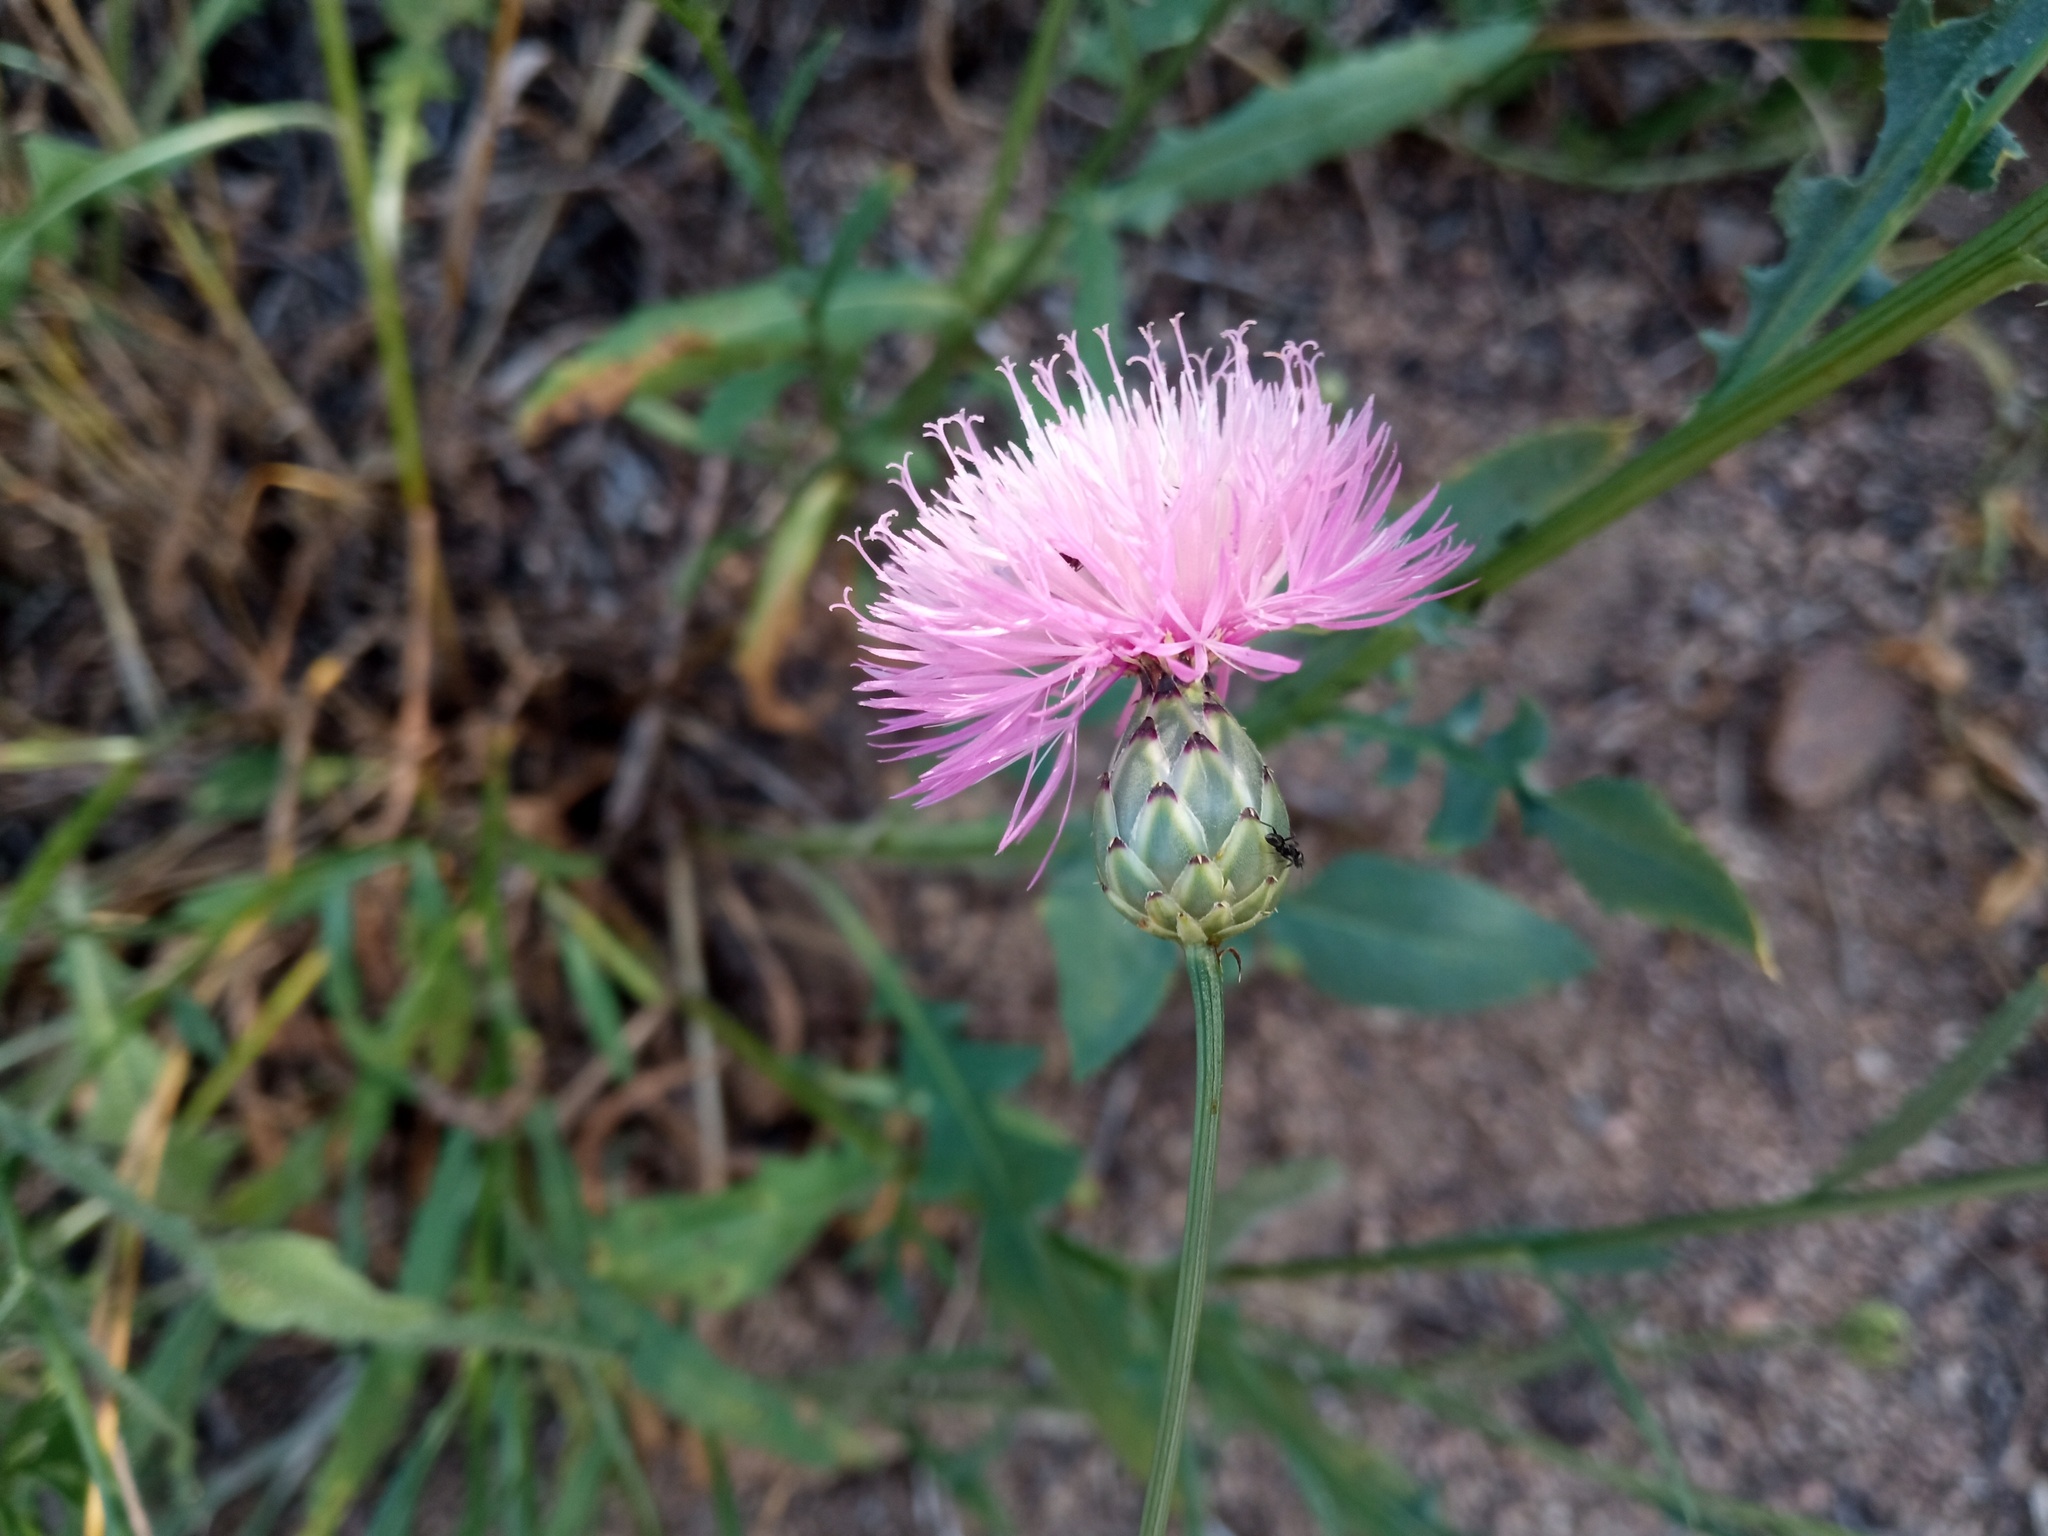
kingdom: Plantae
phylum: Tracheophyta
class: Magnoliopsida
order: Asterales
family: Asteraceae
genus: Mantisalca
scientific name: Mantisalca salmantica
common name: Dagger flower
